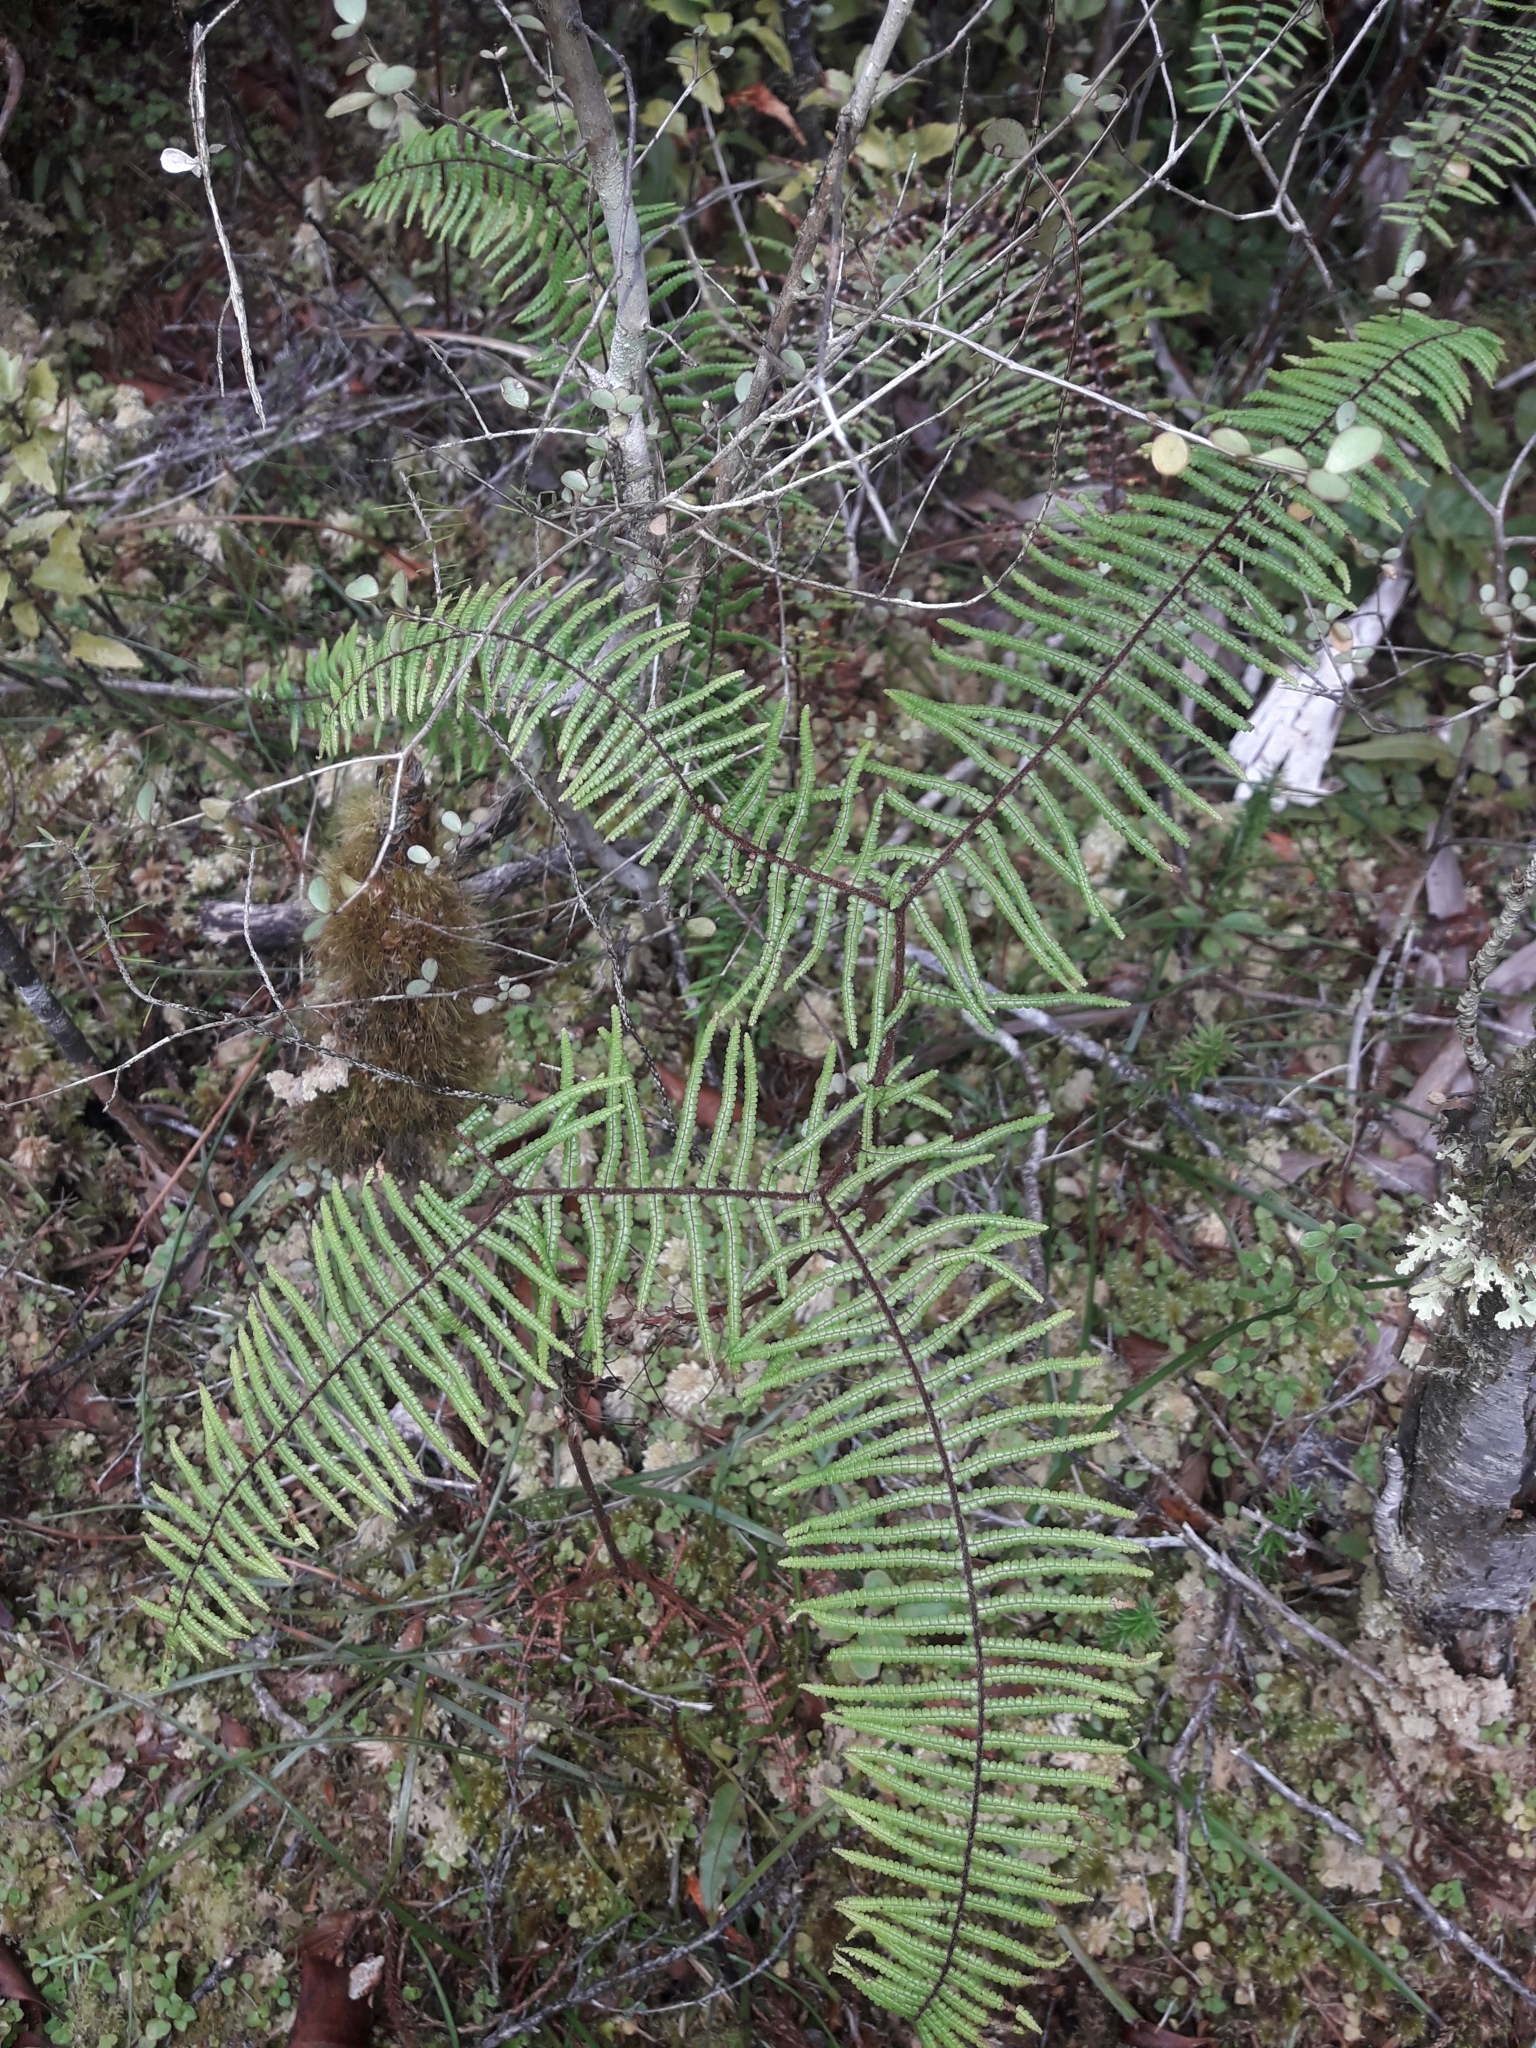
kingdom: Plantae
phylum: Tracheophyta
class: Polypodiopsida
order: Gleicheniales
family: Gleicheniaceae
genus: Gleichenia
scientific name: Gleichenia microphylla
